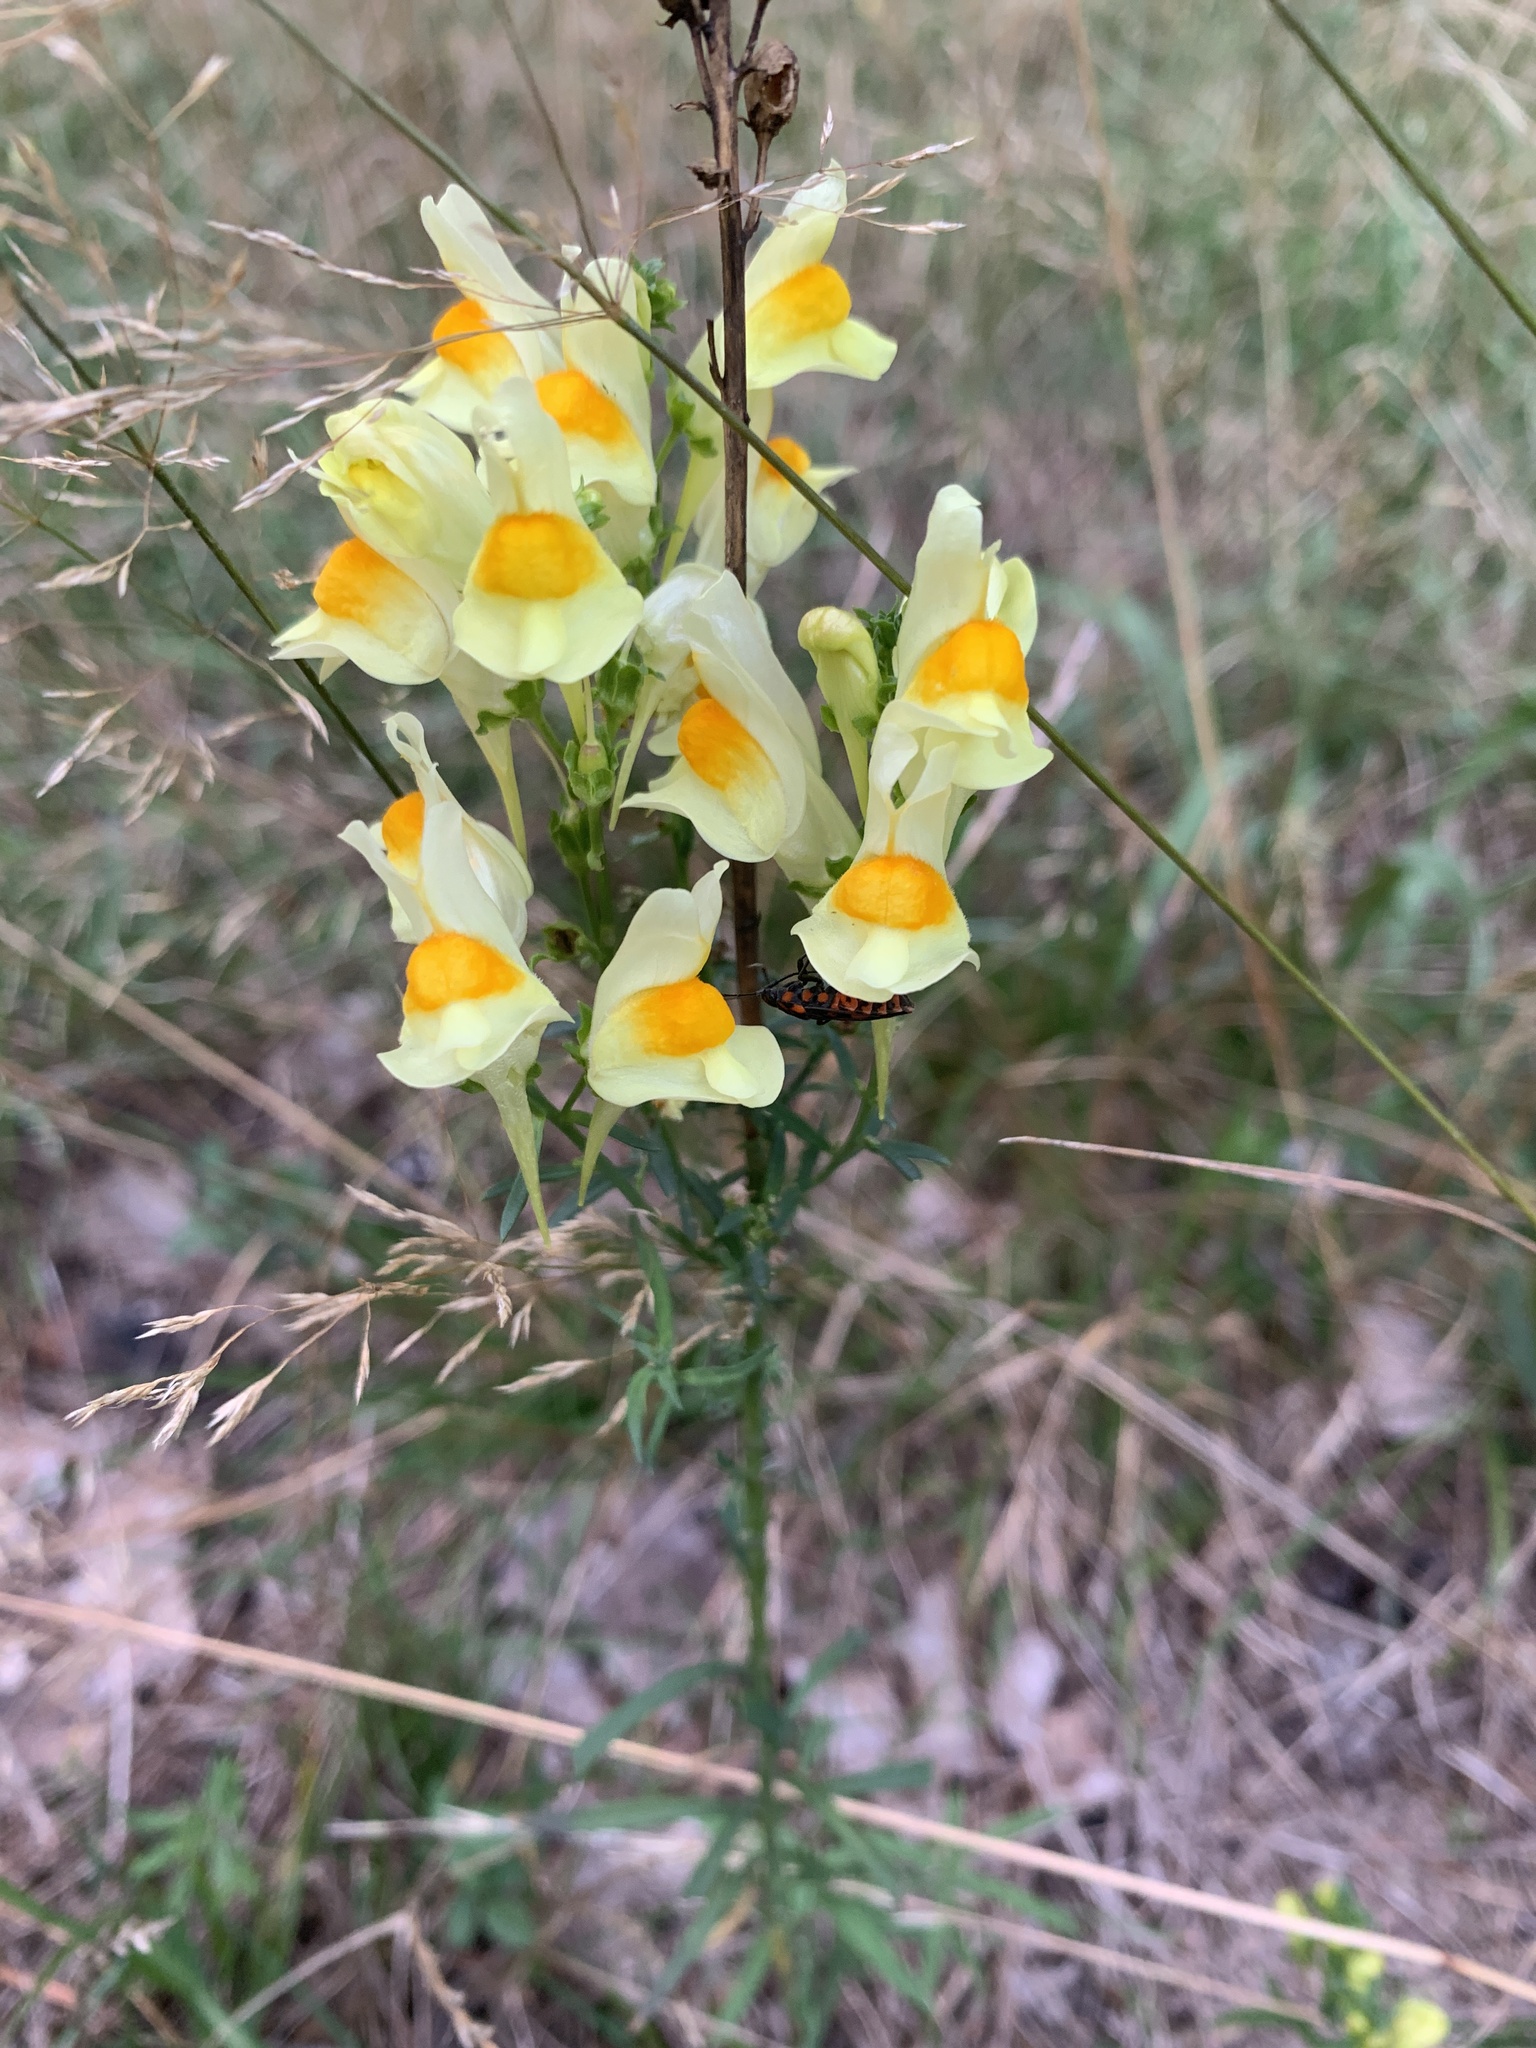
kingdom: Plantae
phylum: Tracheophyta
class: Magnoliopsida
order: Lamiales
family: Plantaginaceae
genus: Linaria
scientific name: Linaria vulgaris
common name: Butter and eggs
